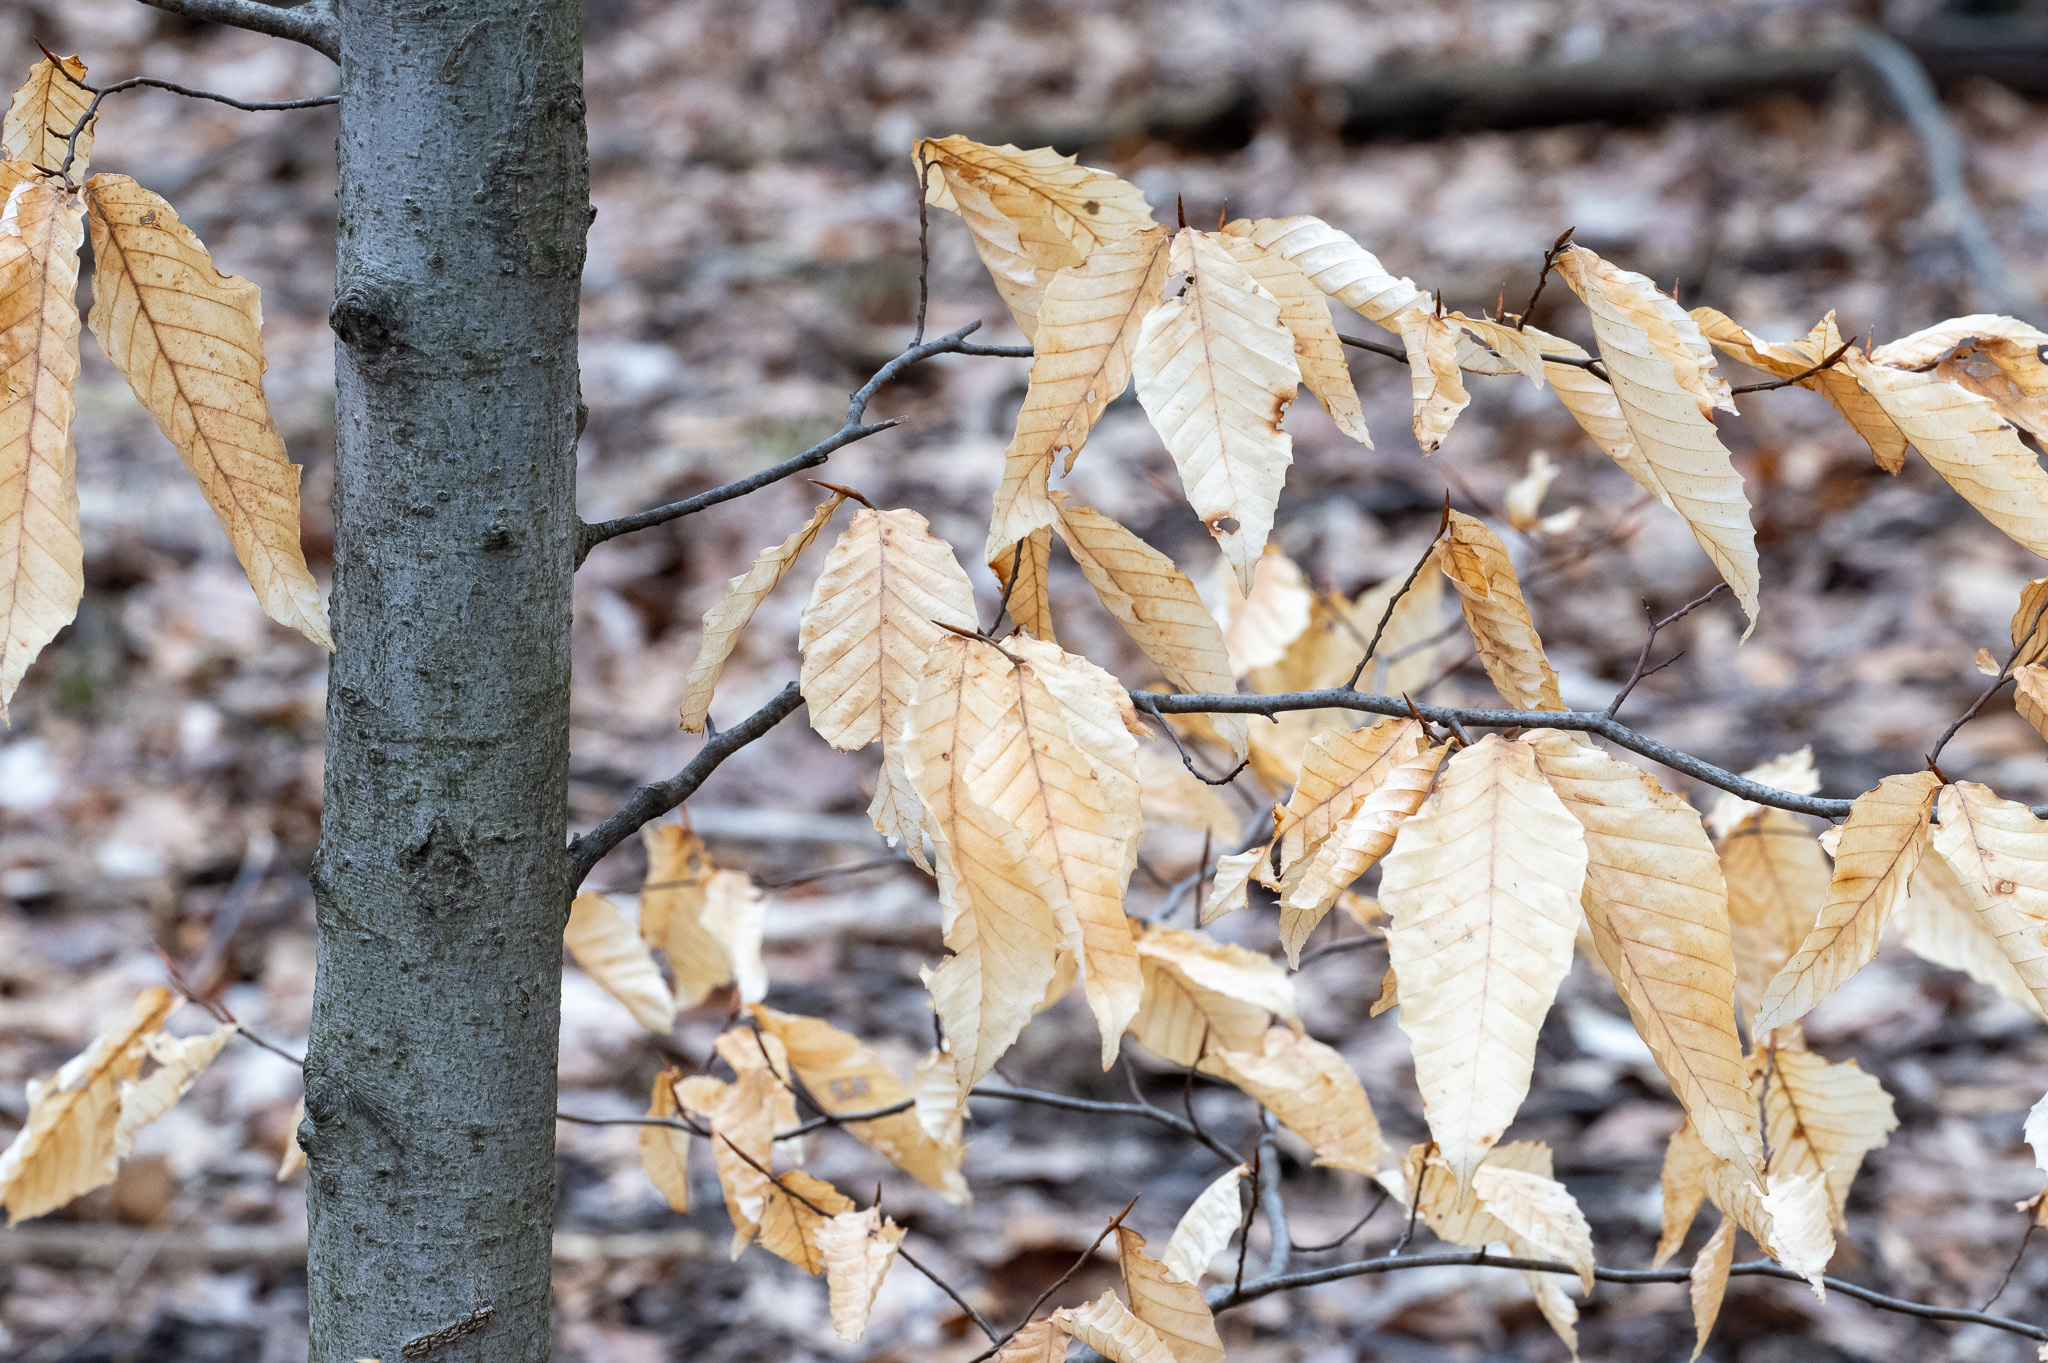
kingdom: Plantae
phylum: Tracheophyta
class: Magnoliopsida
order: Fagales
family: Fagaceae
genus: Fagus
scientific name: Fagus grandifolia
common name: American beech
